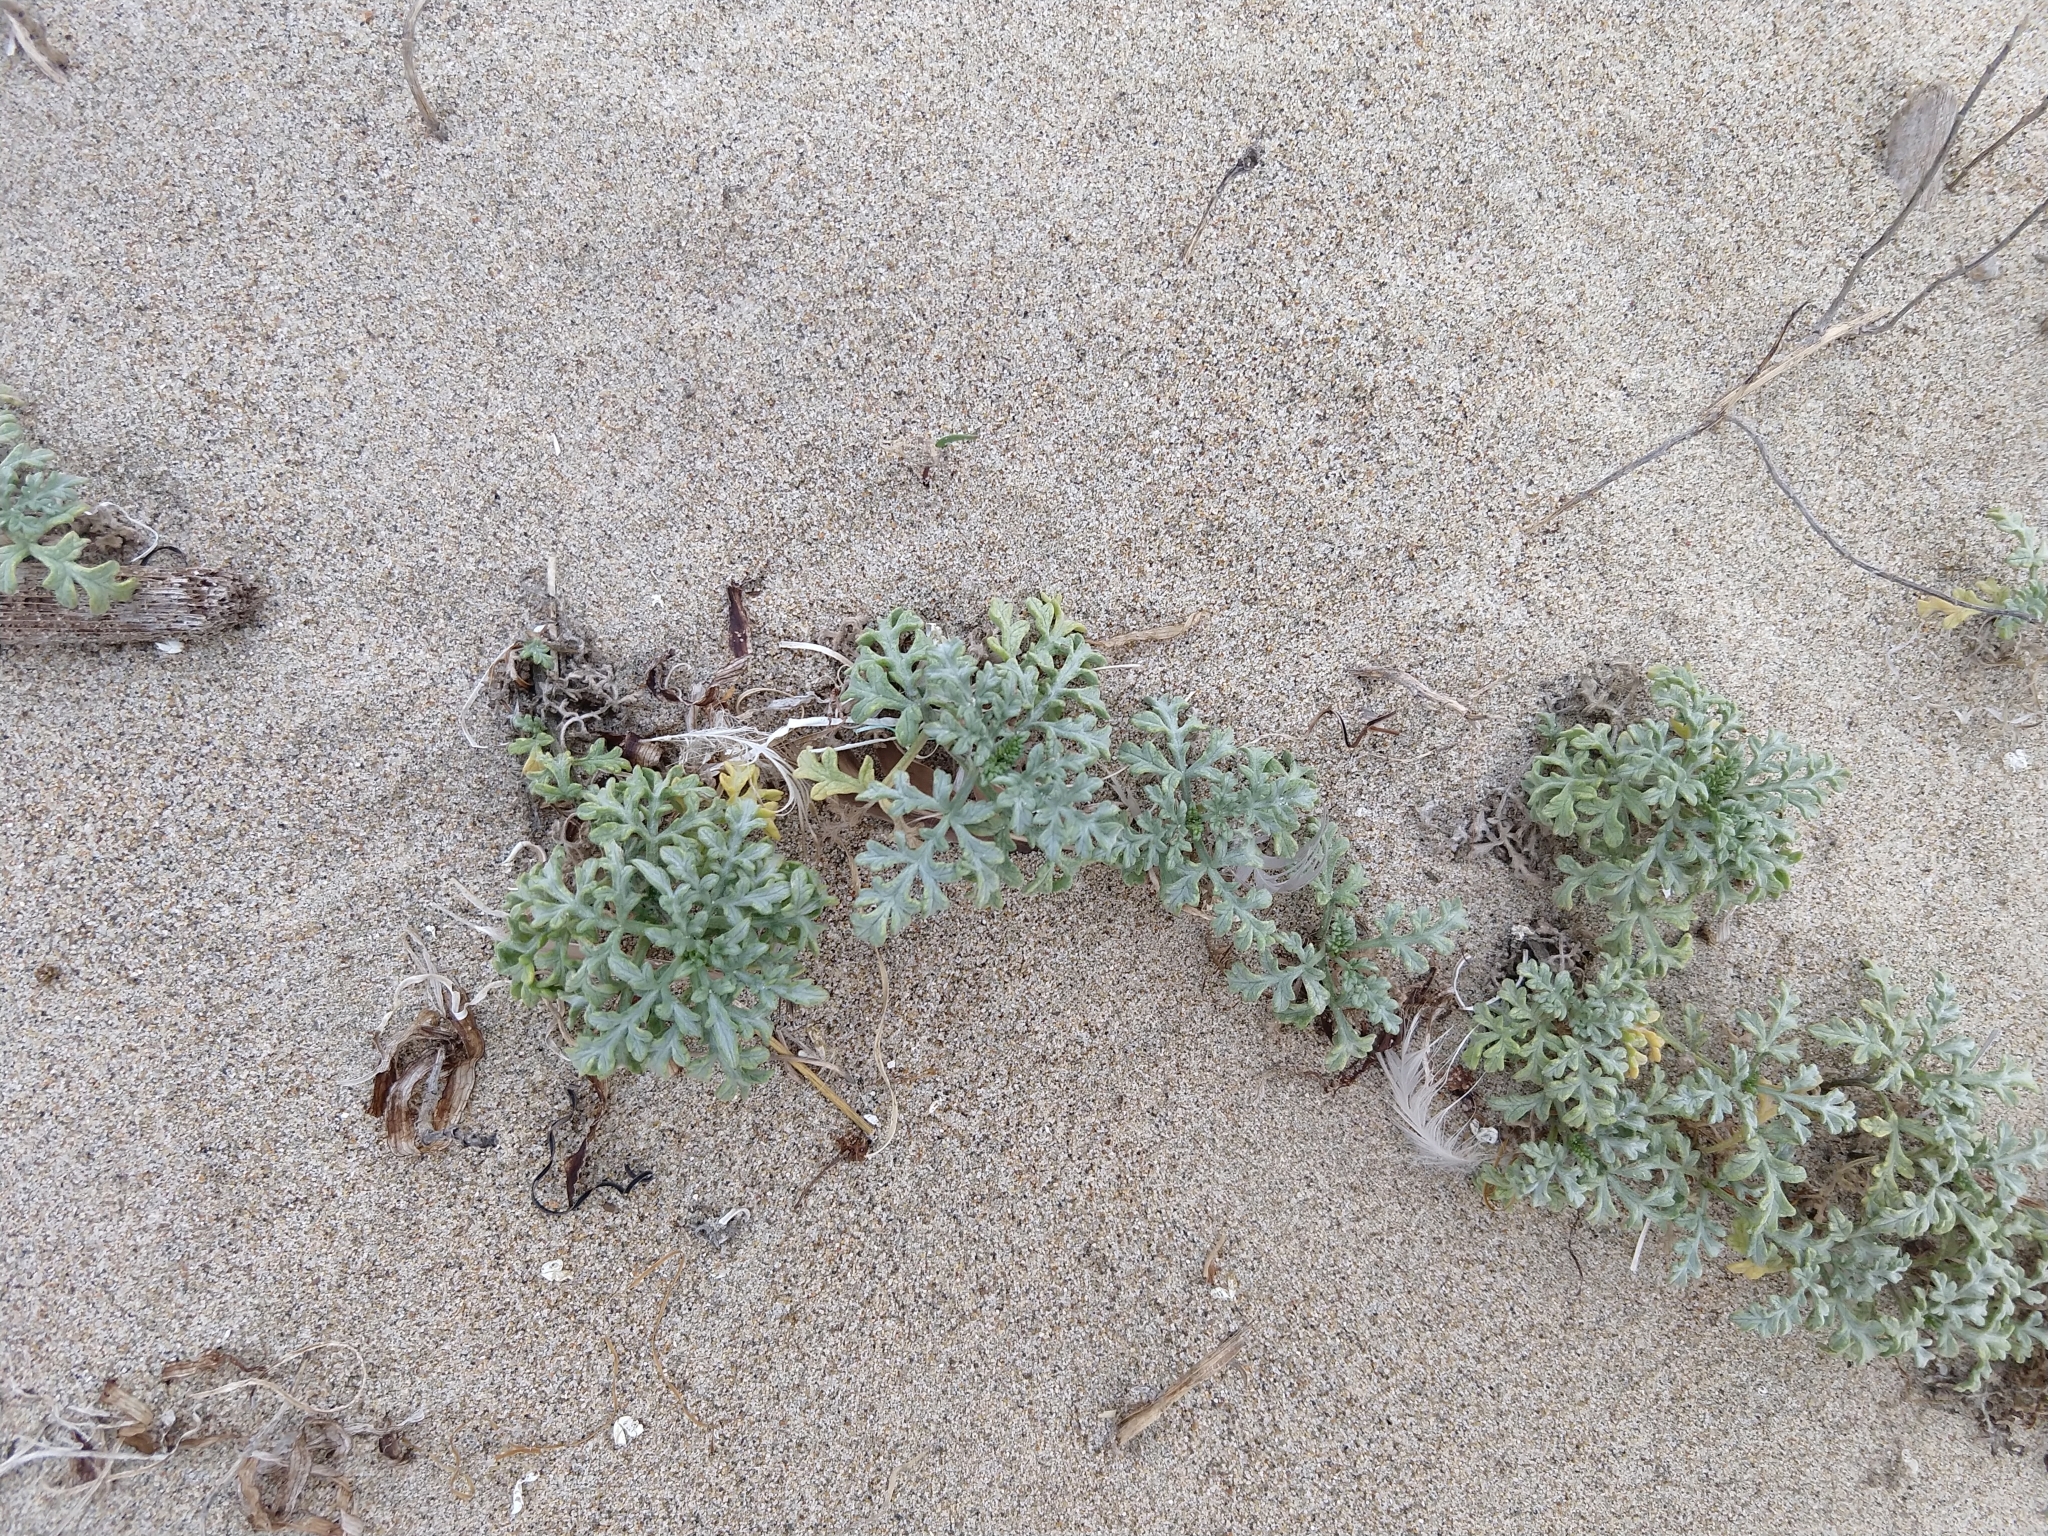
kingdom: Plantae
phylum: Tracheophyta
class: Magnoliopsida
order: Asterales
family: Asteraceae
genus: Ambrosia
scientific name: Ambrosia chamissonis
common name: Beachbur
